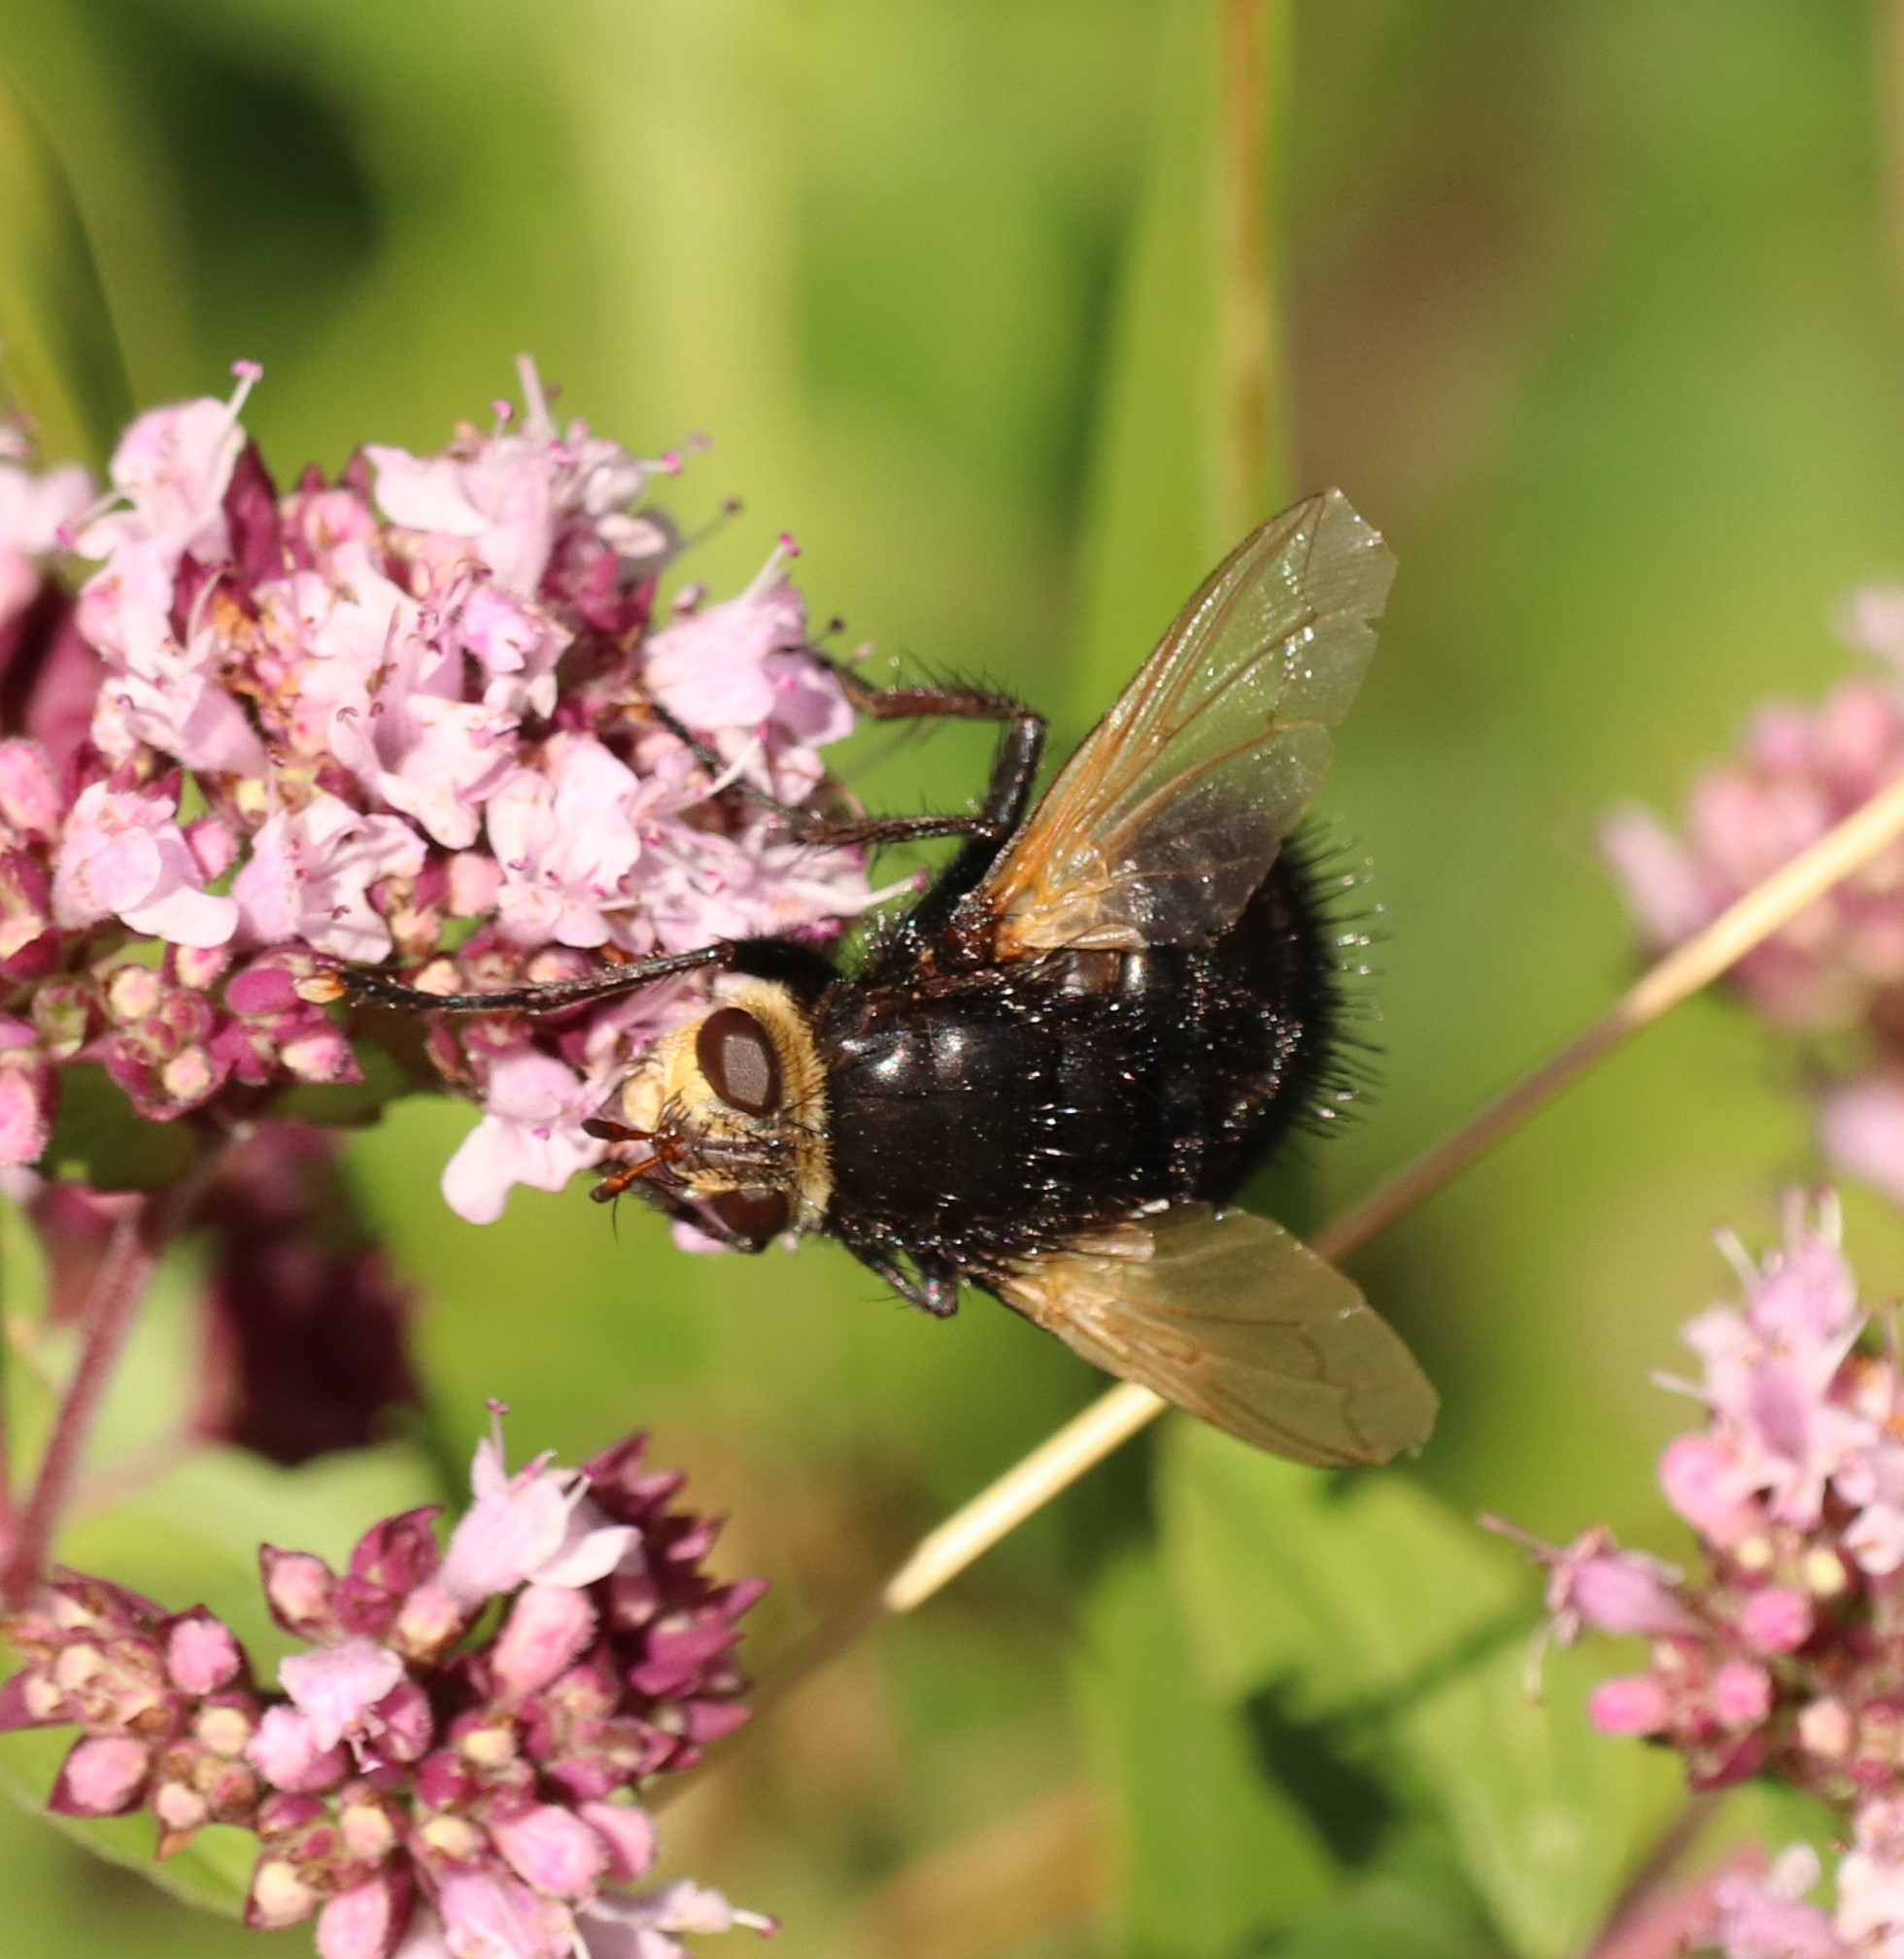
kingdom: Animalia
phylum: Arthropoda
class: Insecta
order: Diptera
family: Tachinidae
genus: Tachina
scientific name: Tachina grossa
